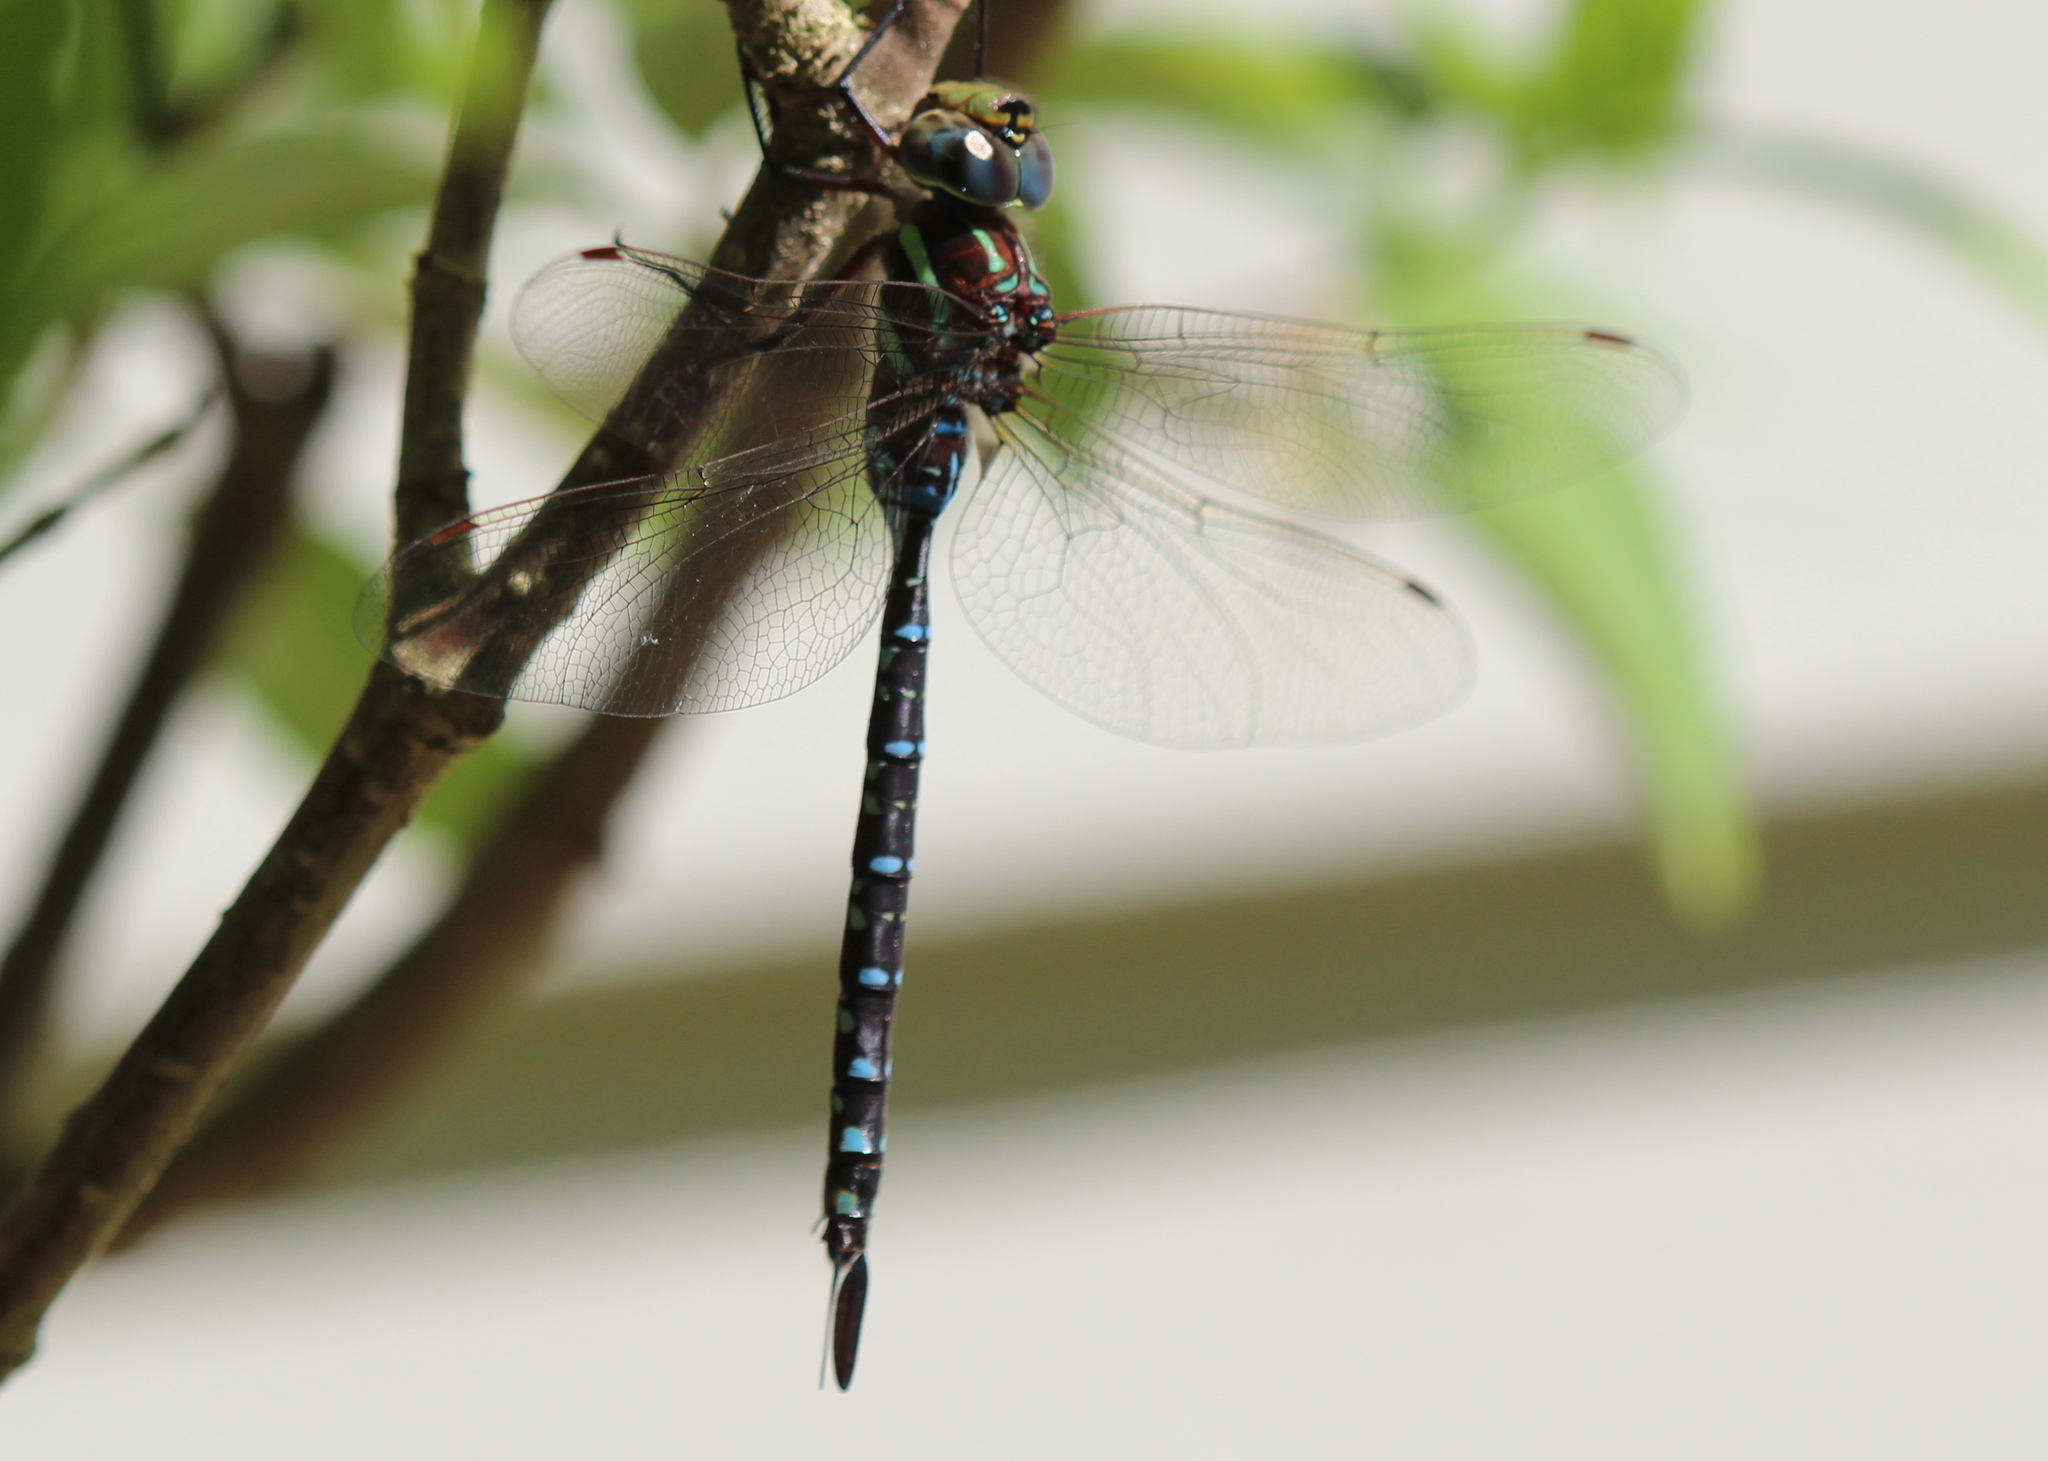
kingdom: Animalia
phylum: Arthropoda
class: Insecta
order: Odonata
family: Aeshnidae
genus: Aeshna
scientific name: Aeshna tuberculifera
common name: Aeschne à tubercules
